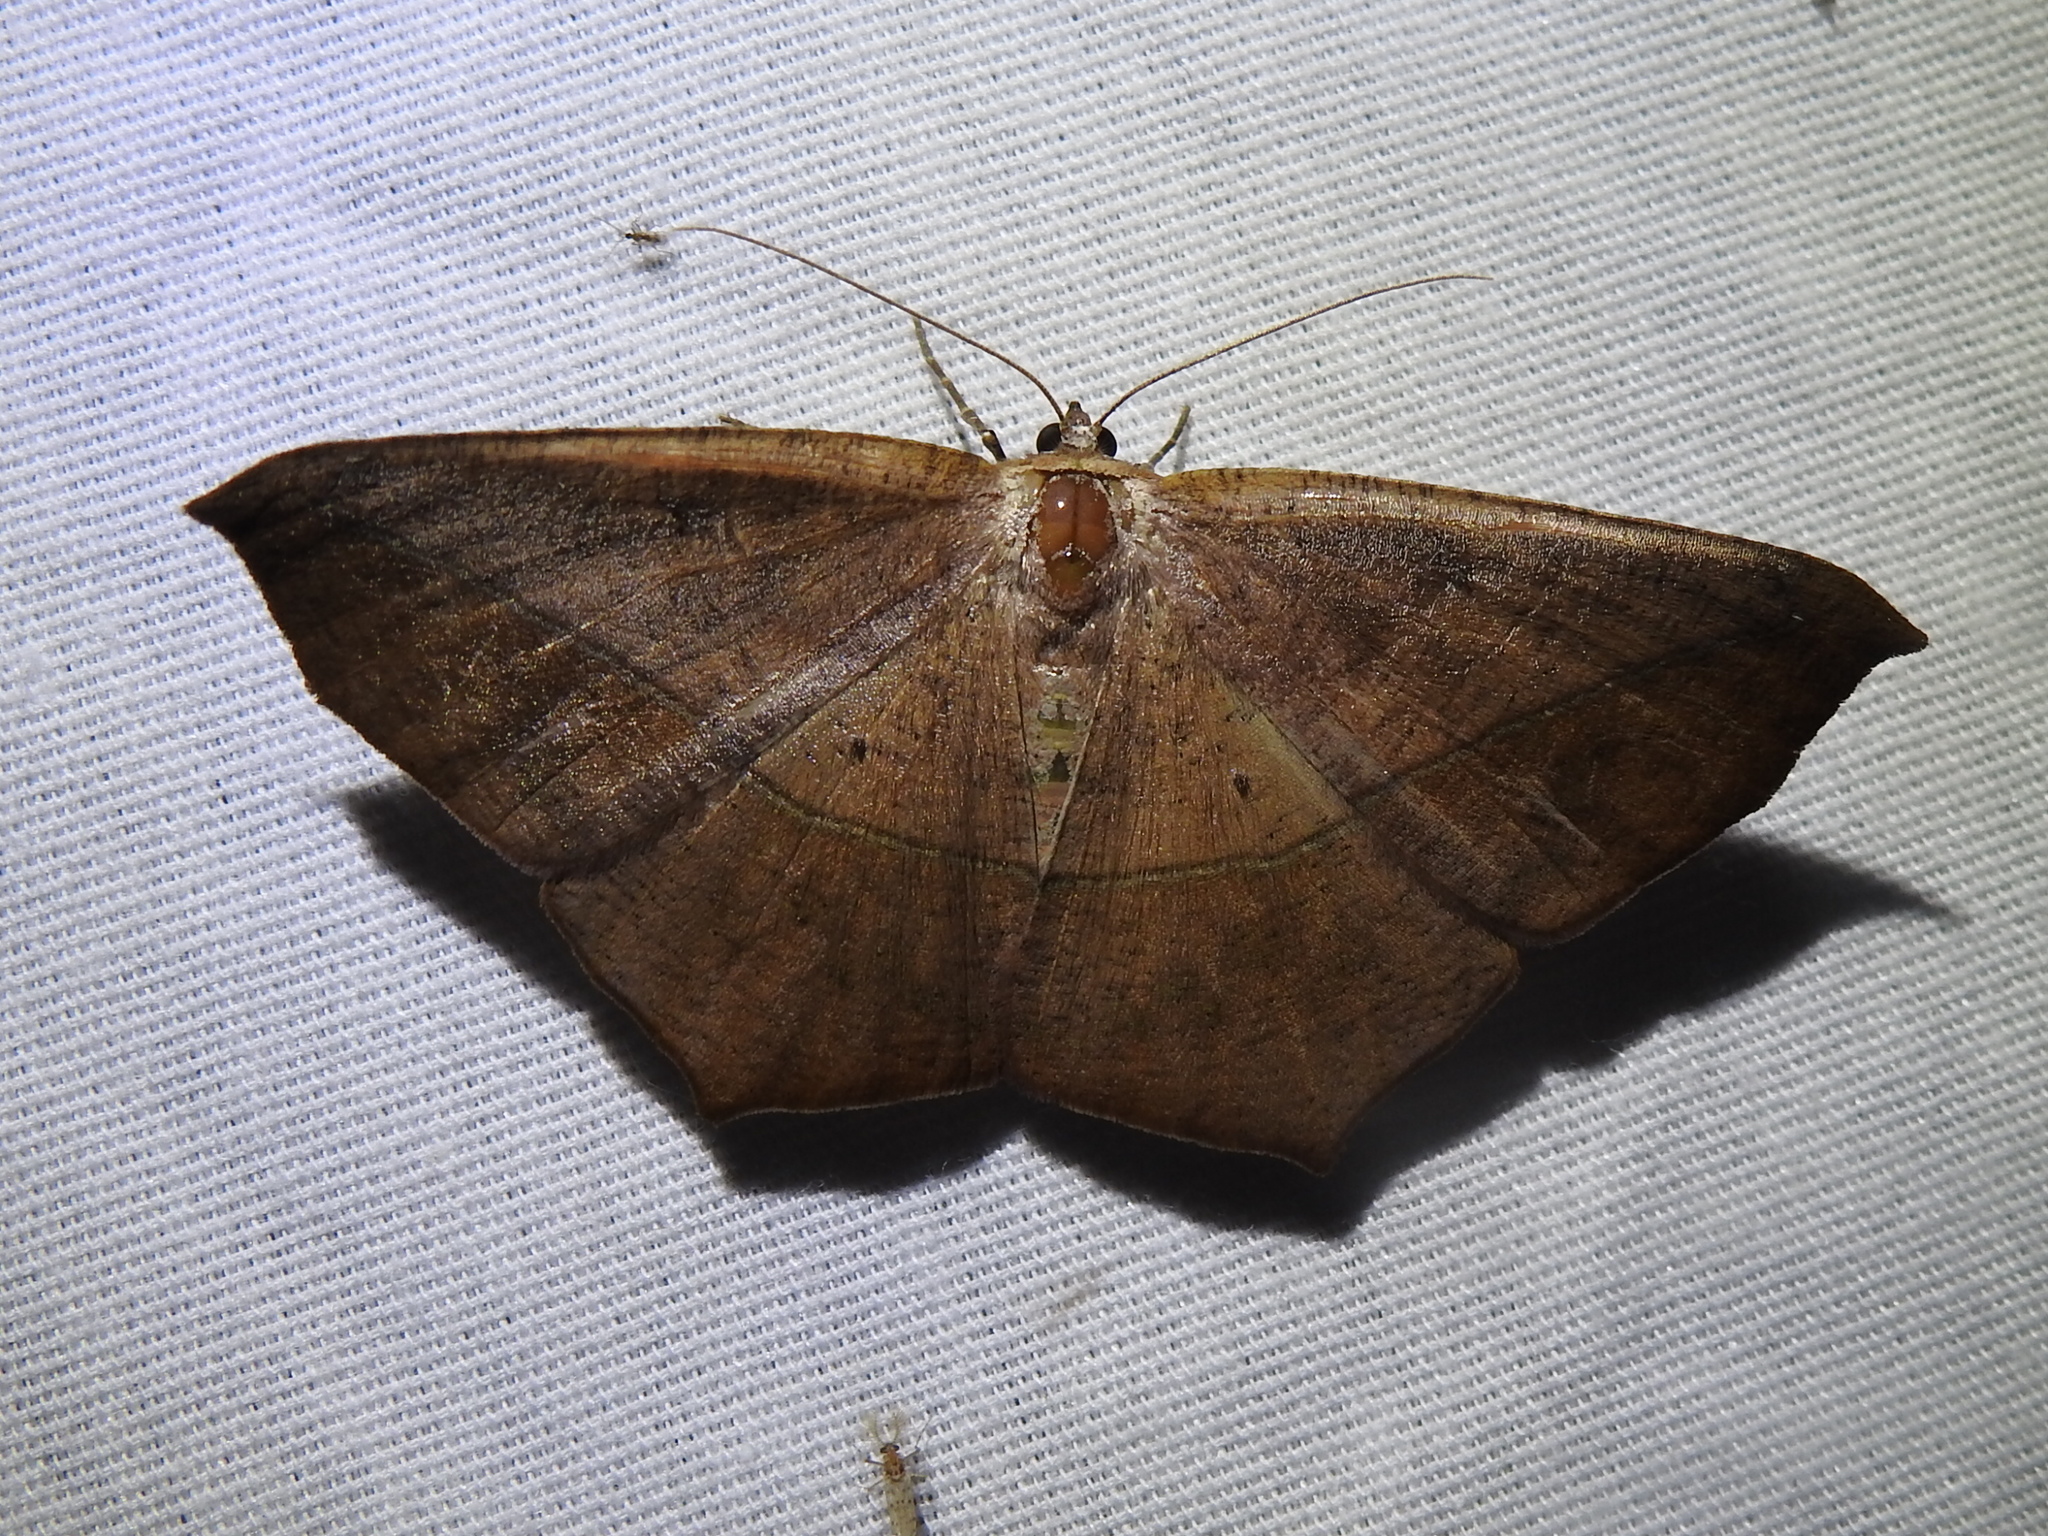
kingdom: Animalia
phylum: Arthropoda
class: Insecta
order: Lepidoptera
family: Geometridae
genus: Prochoerodes
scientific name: Prochoerodes lineola
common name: Large maple spanworm
